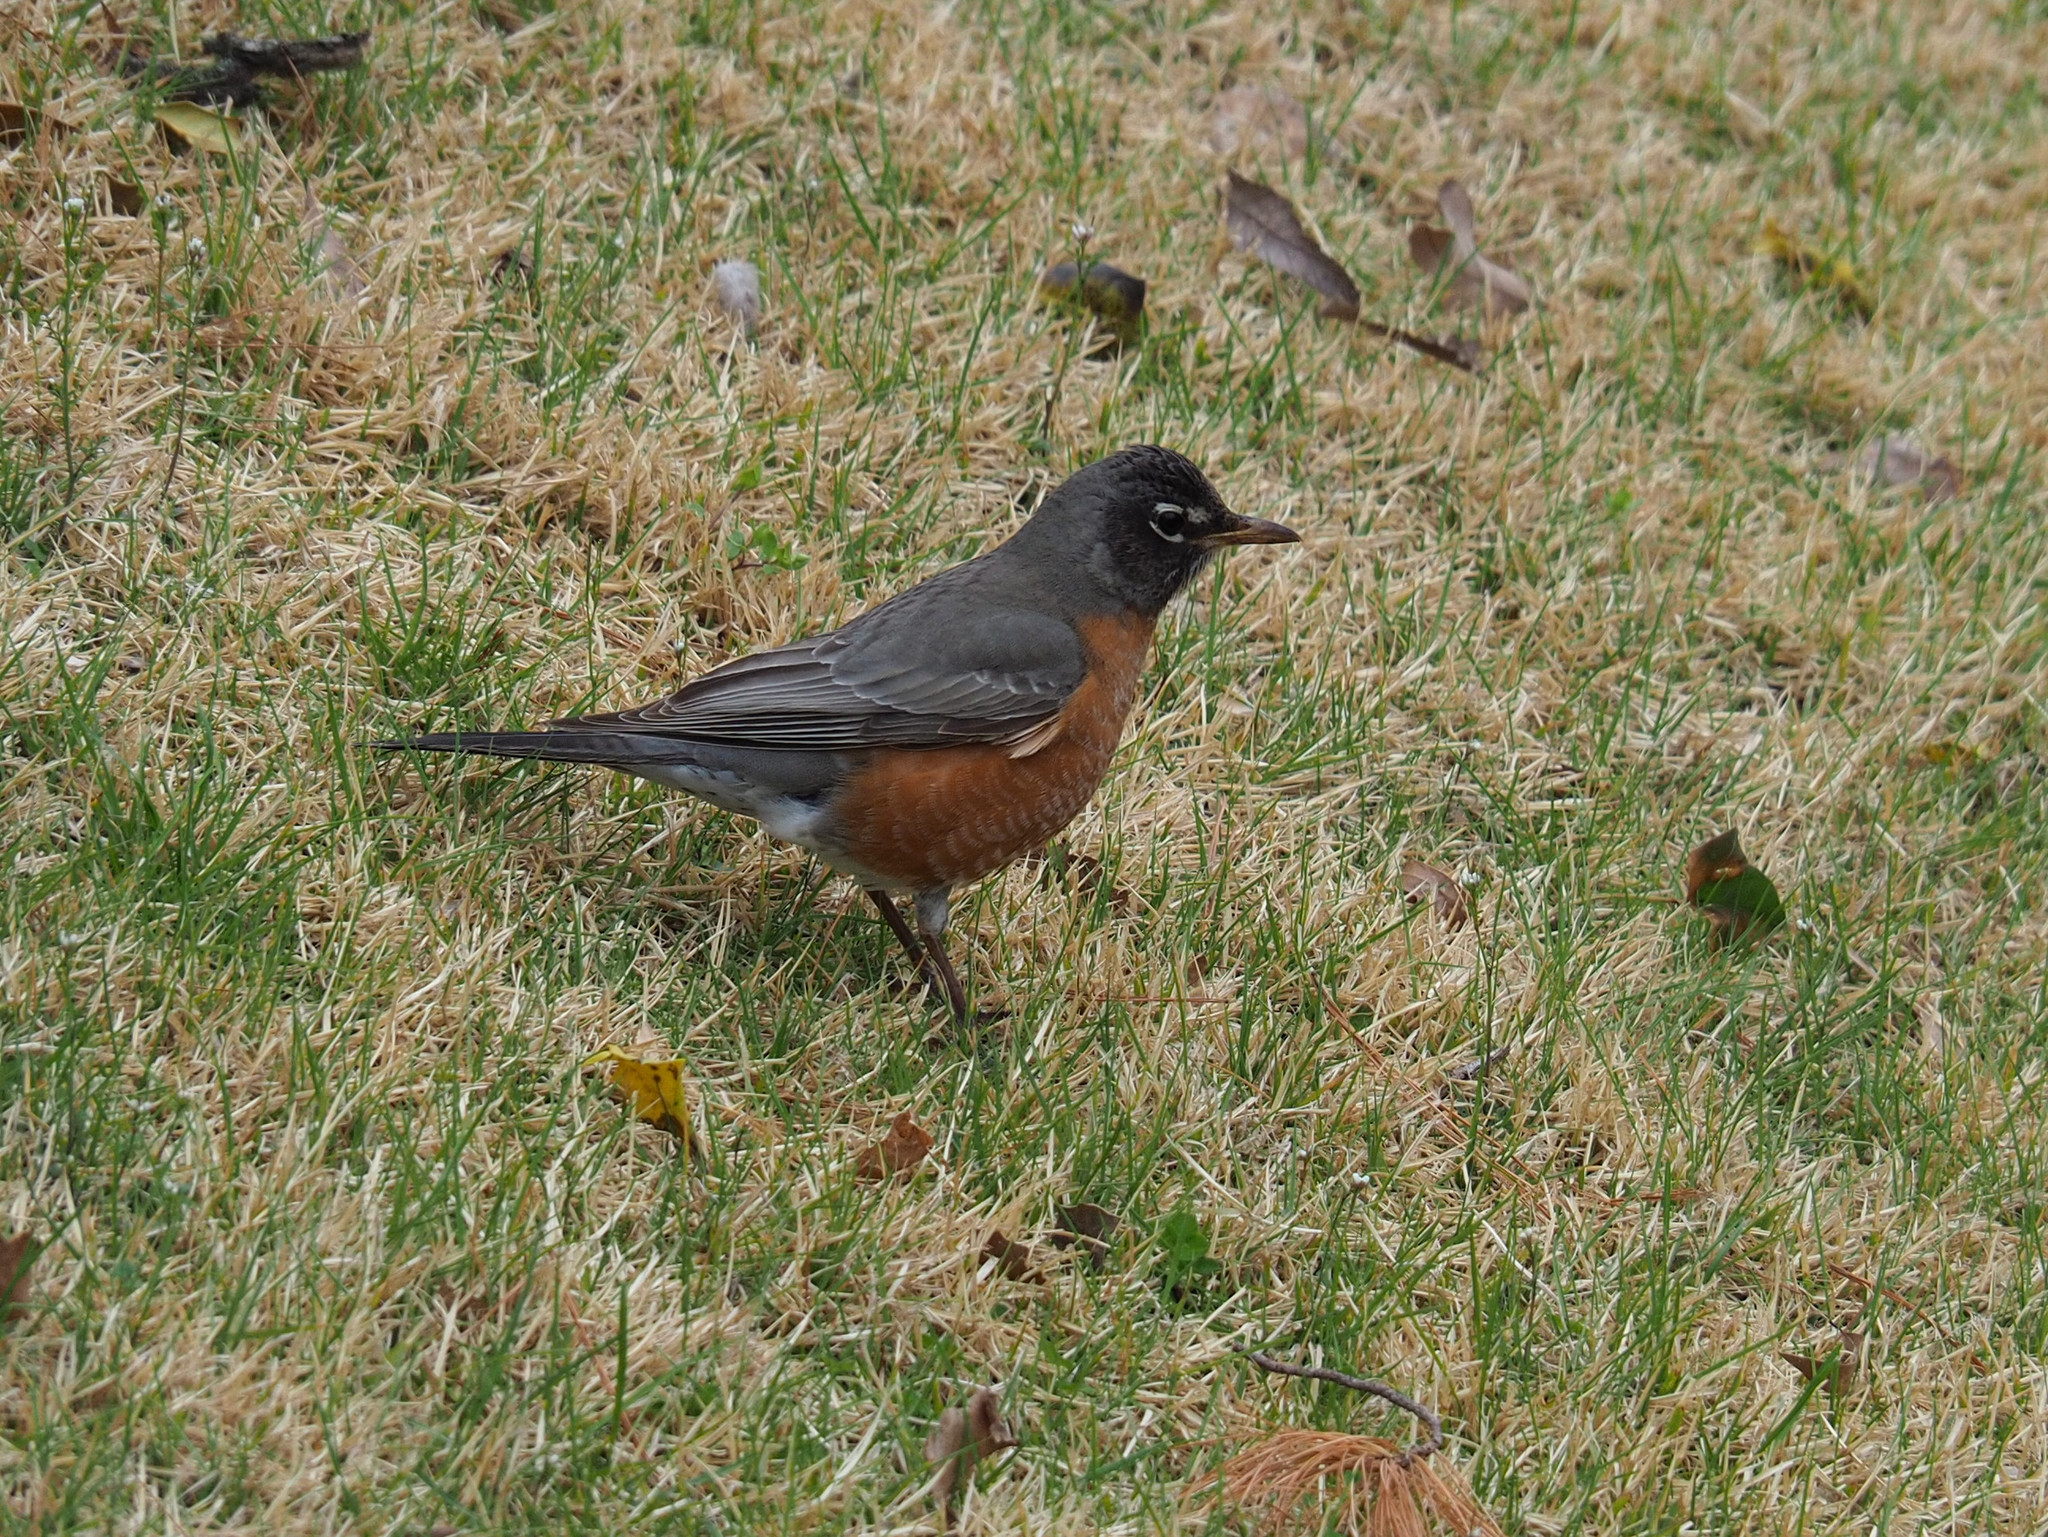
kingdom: Animalia
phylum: Chordata
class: Aves
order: Passeriformes
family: Turdidae
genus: Turdus
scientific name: Turdus migratorius
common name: American robin
